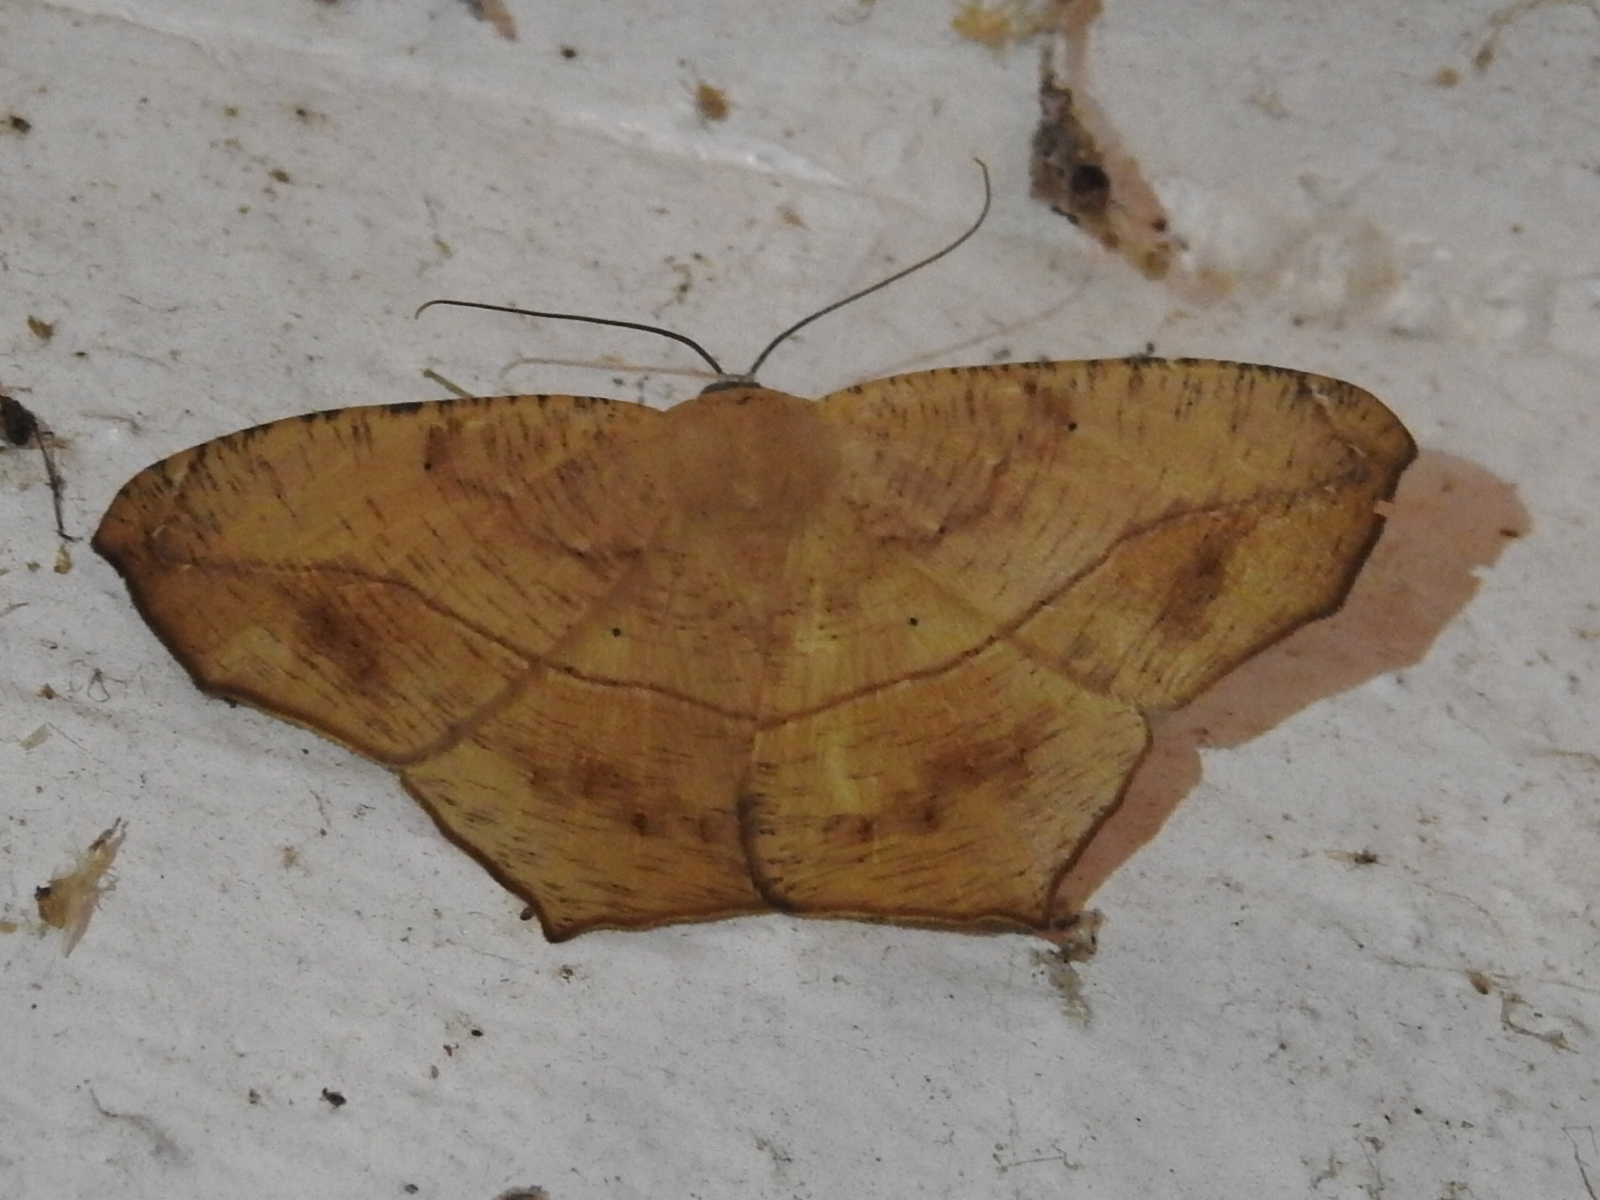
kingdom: Animalia
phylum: Arthropoda
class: Insecta
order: Lepidoptera
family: Geometridae
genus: Prochoerodes
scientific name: Prochoerodes lineola
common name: Large maple spanworm
